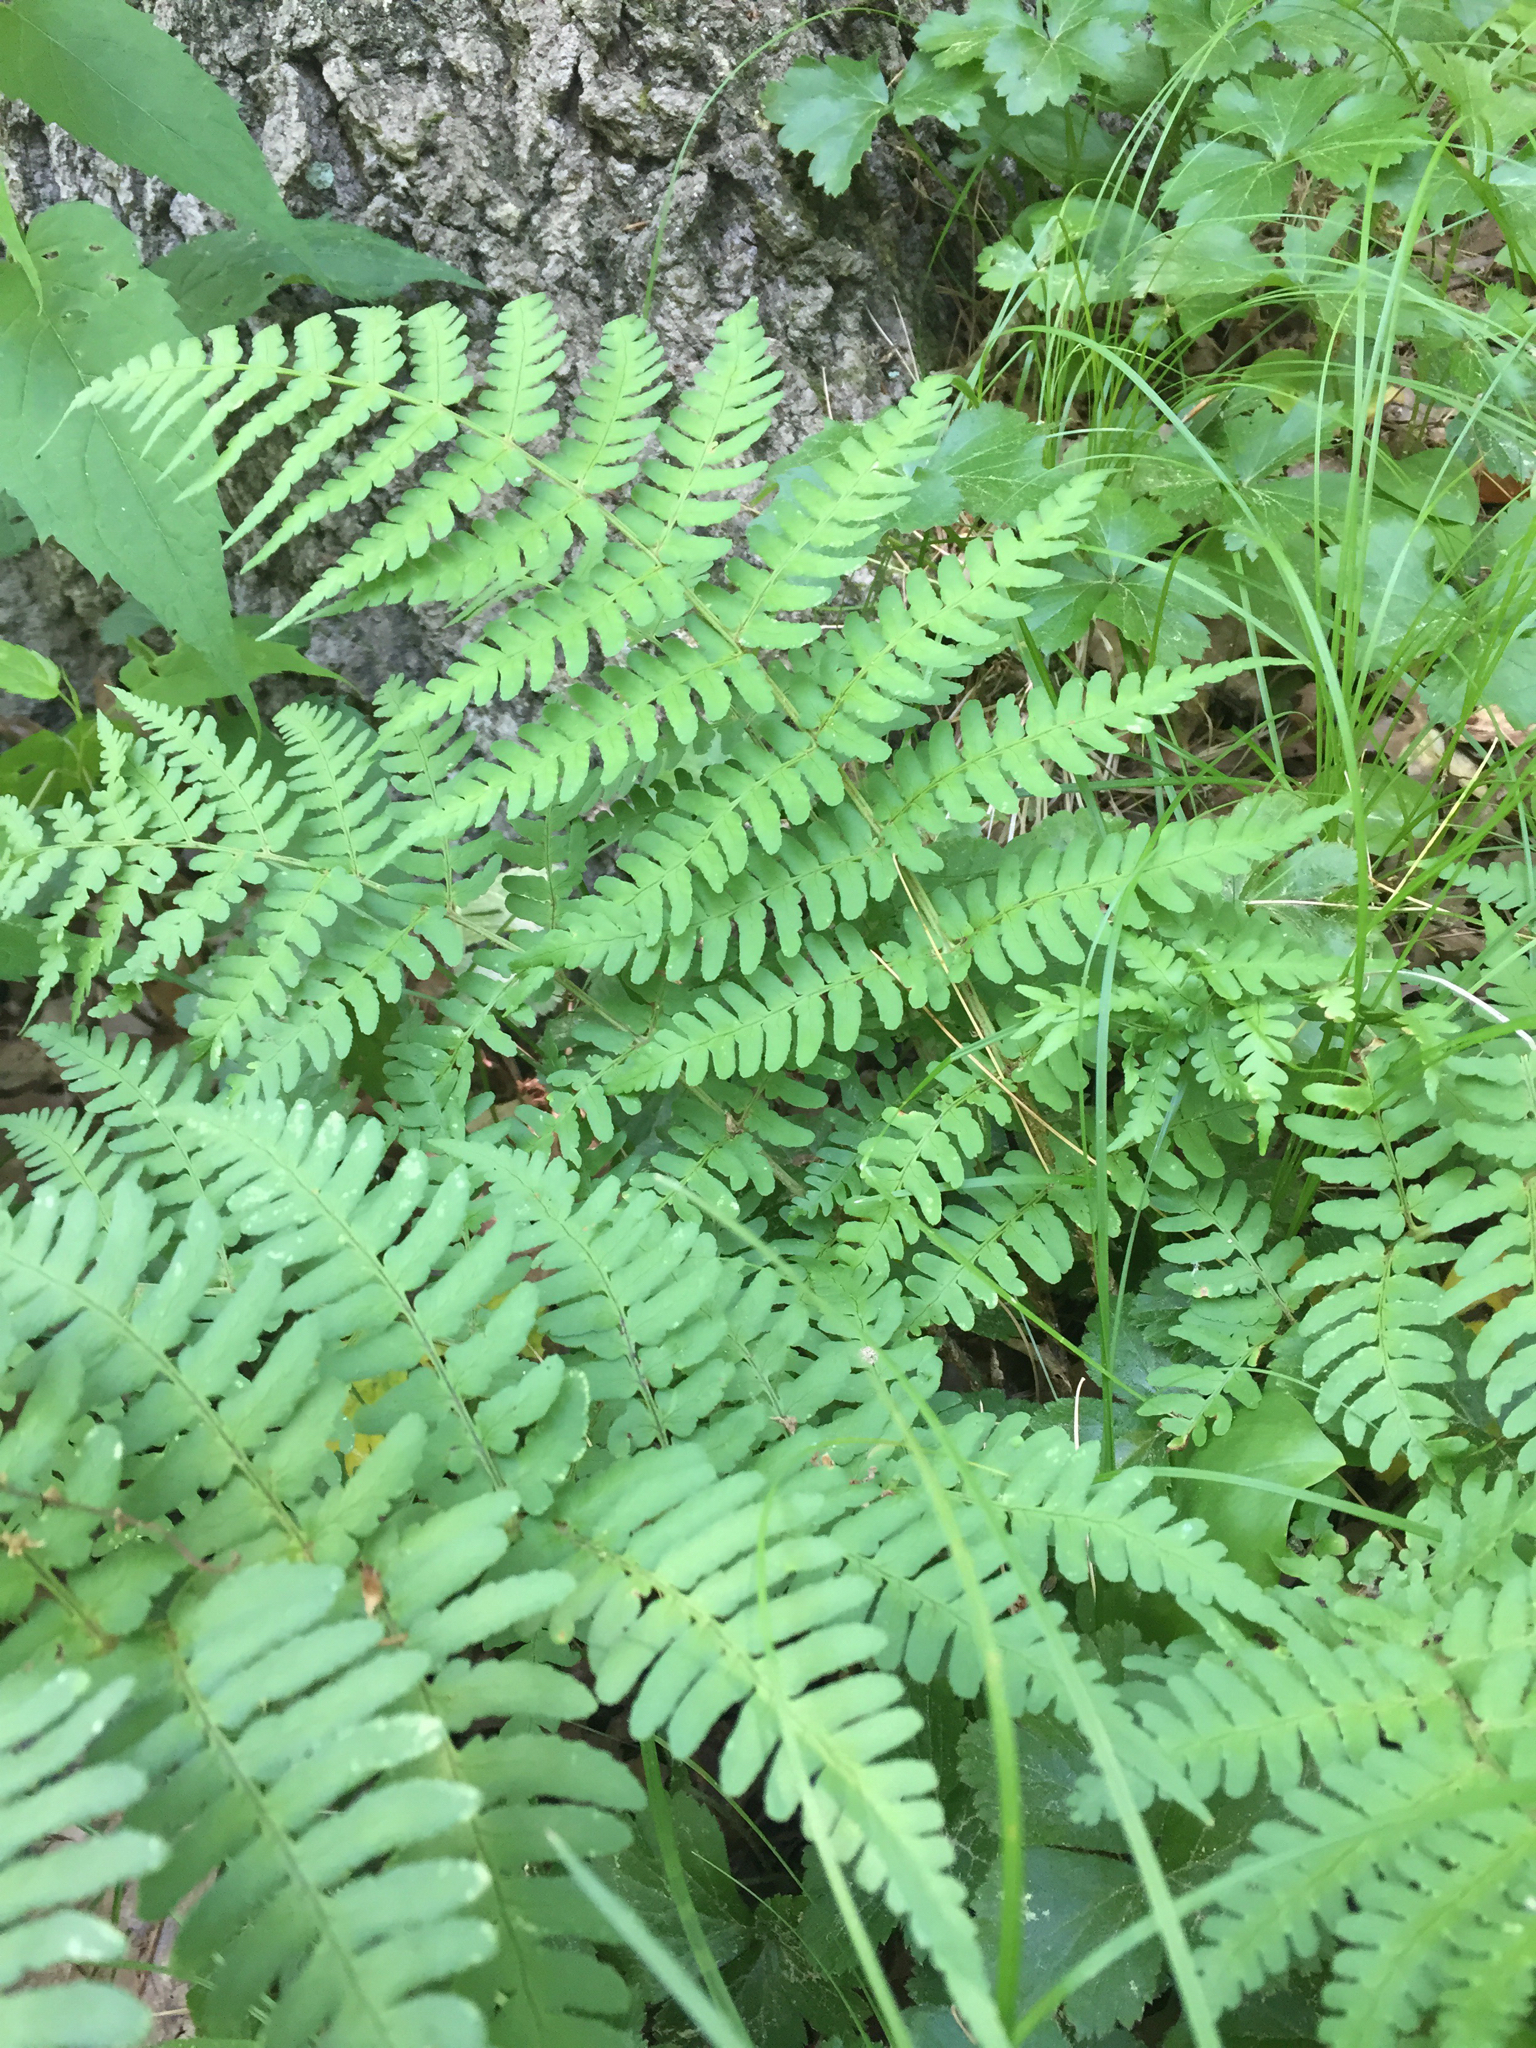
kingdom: Plantae
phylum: Tracheophyta
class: Polypodiopsida
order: Polypodiales
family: Dryopteridaceae
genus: Dryopteris
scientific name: Dryopteris marginalis
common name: Marginal wood fern
